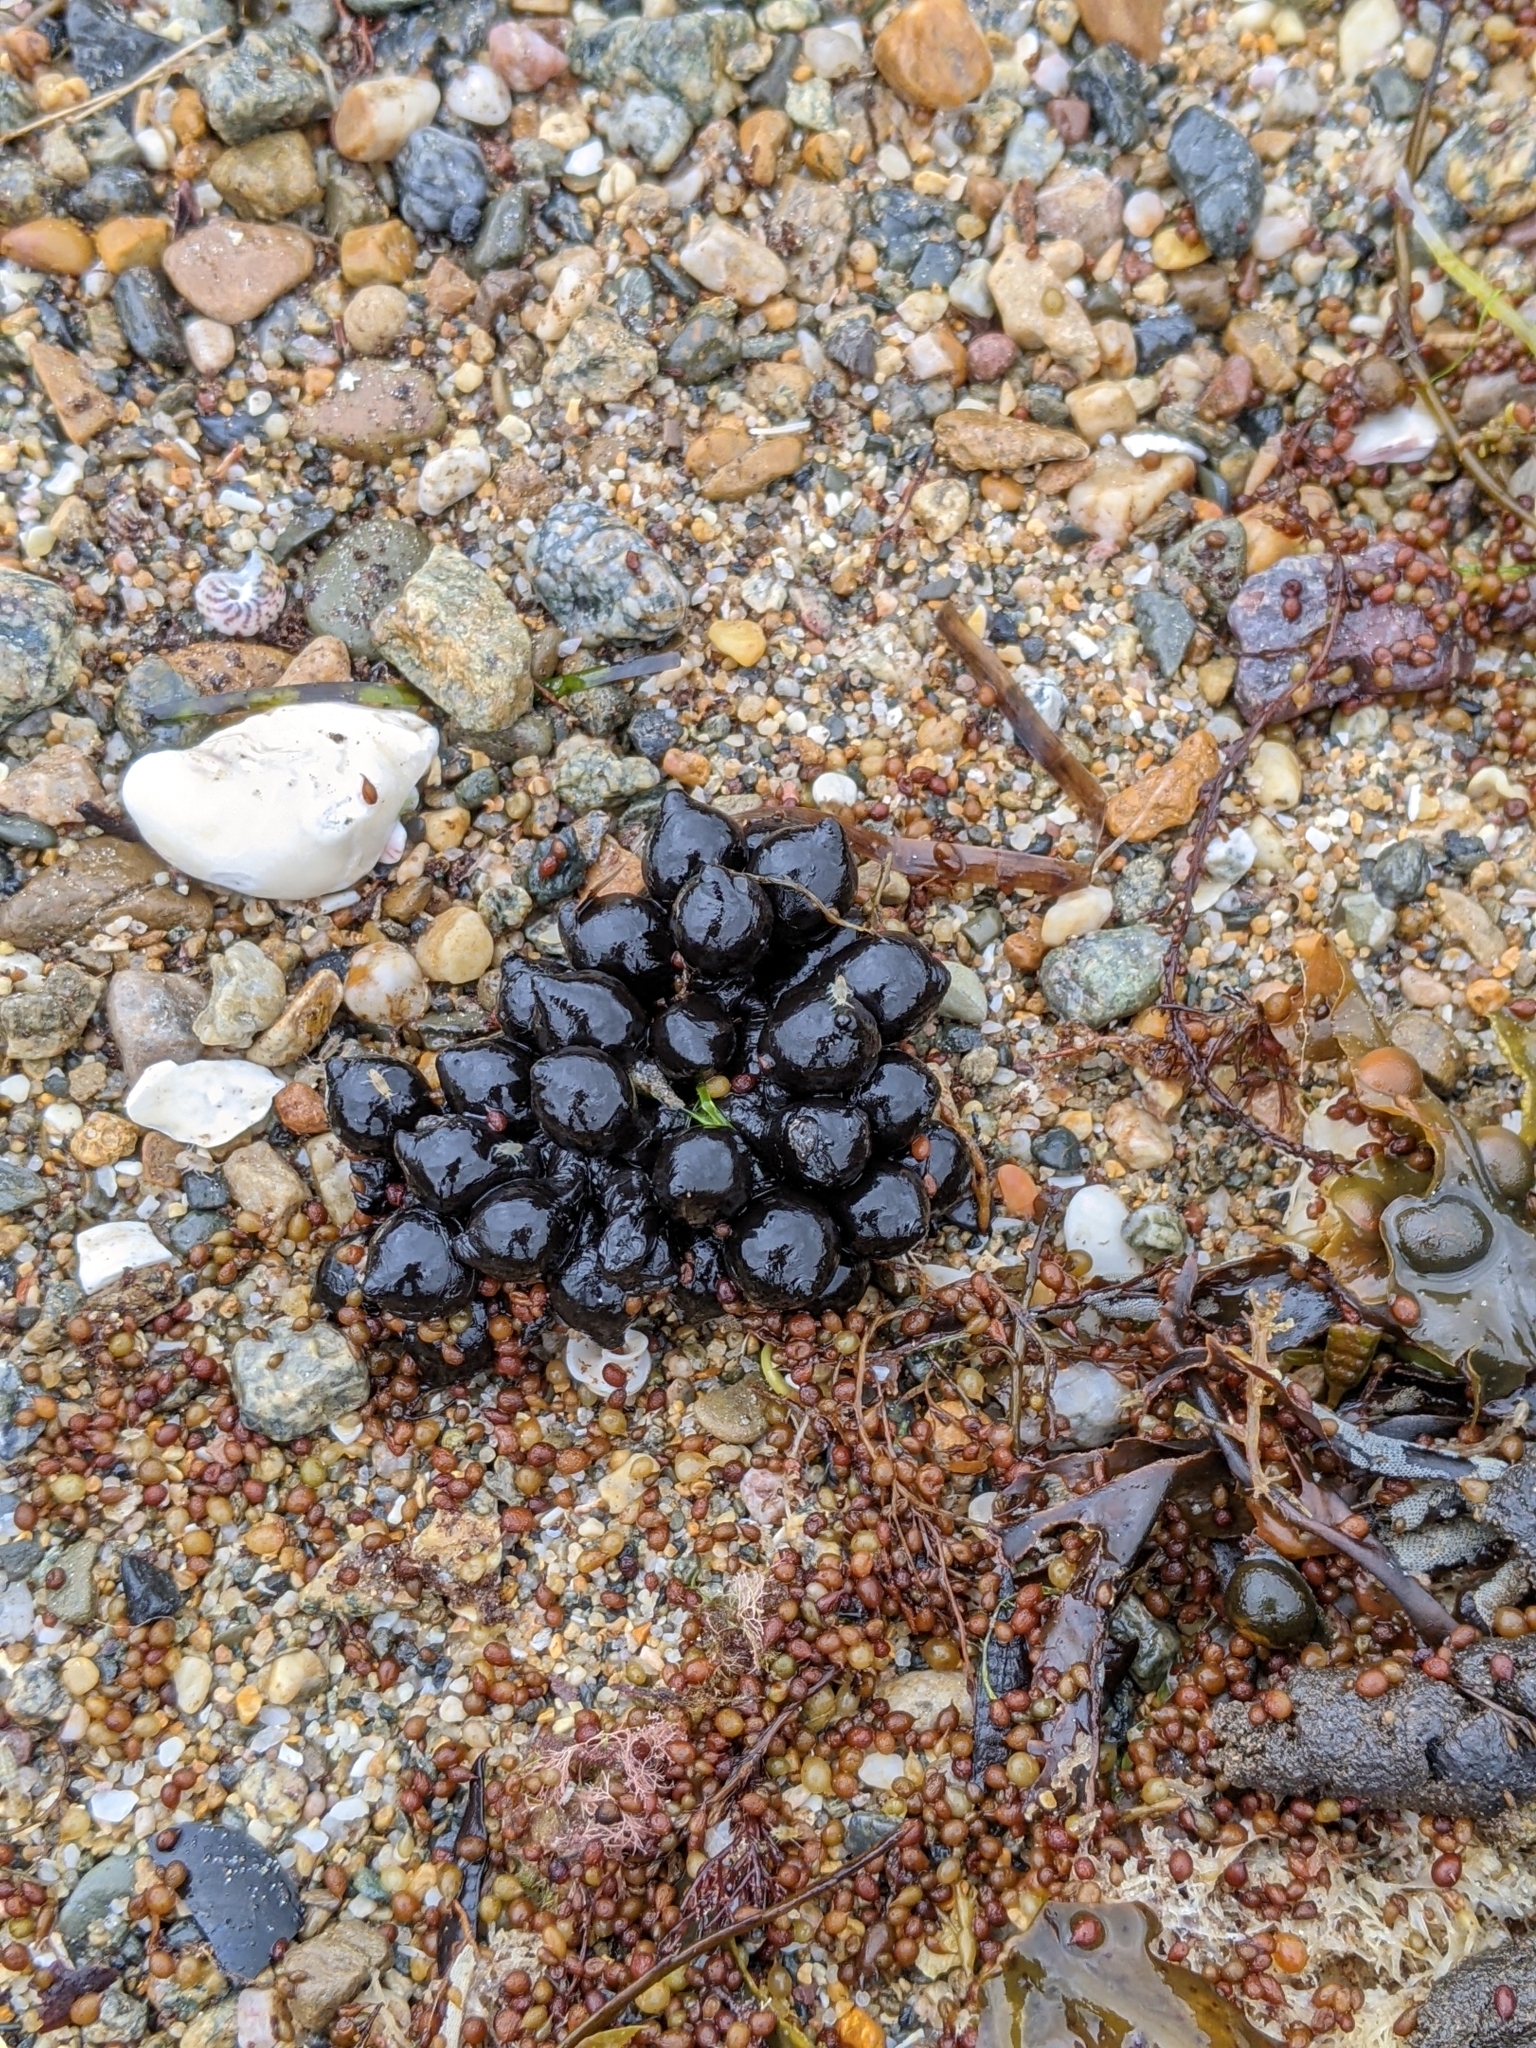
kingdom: Animalia
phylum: Mollusca
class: Cephalopoda
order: Sepiida
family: Sepiidae
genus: Sepia
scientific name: Sepia officinalis
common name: Common cuttlefish
